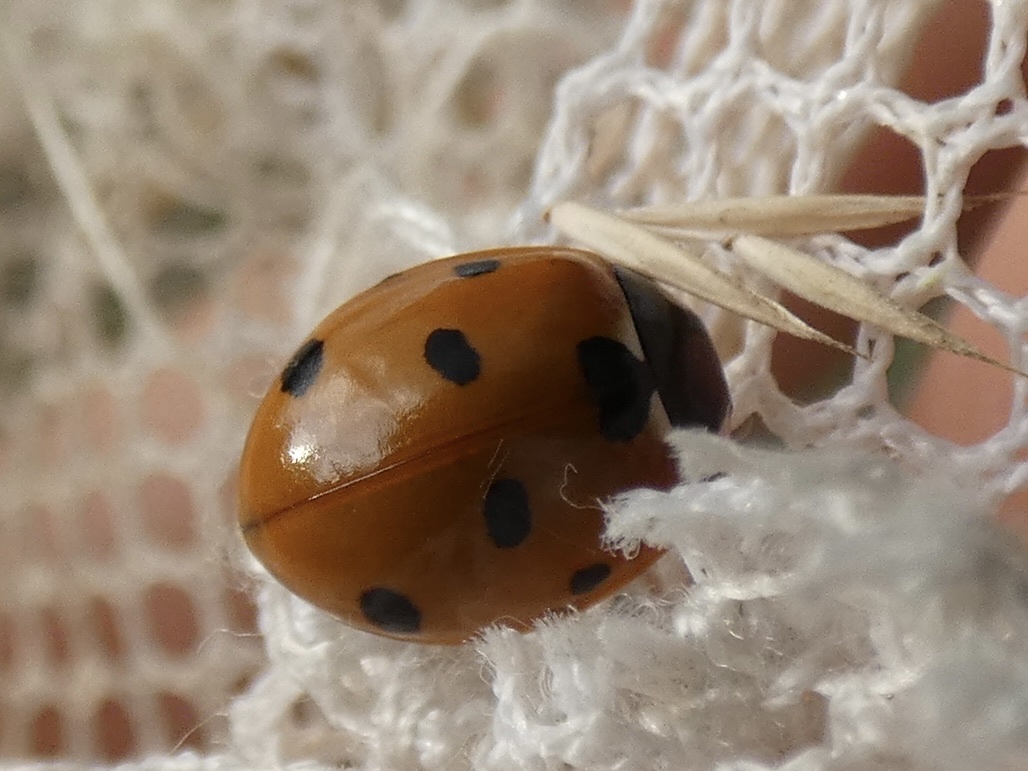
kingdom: Animalia
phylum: Arthropoda
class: Insecta
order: Coleoptera
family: Coccinellidae
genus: Coccinella
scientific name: Coccinella septempunctata
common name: Sevenspotted lady beetle
